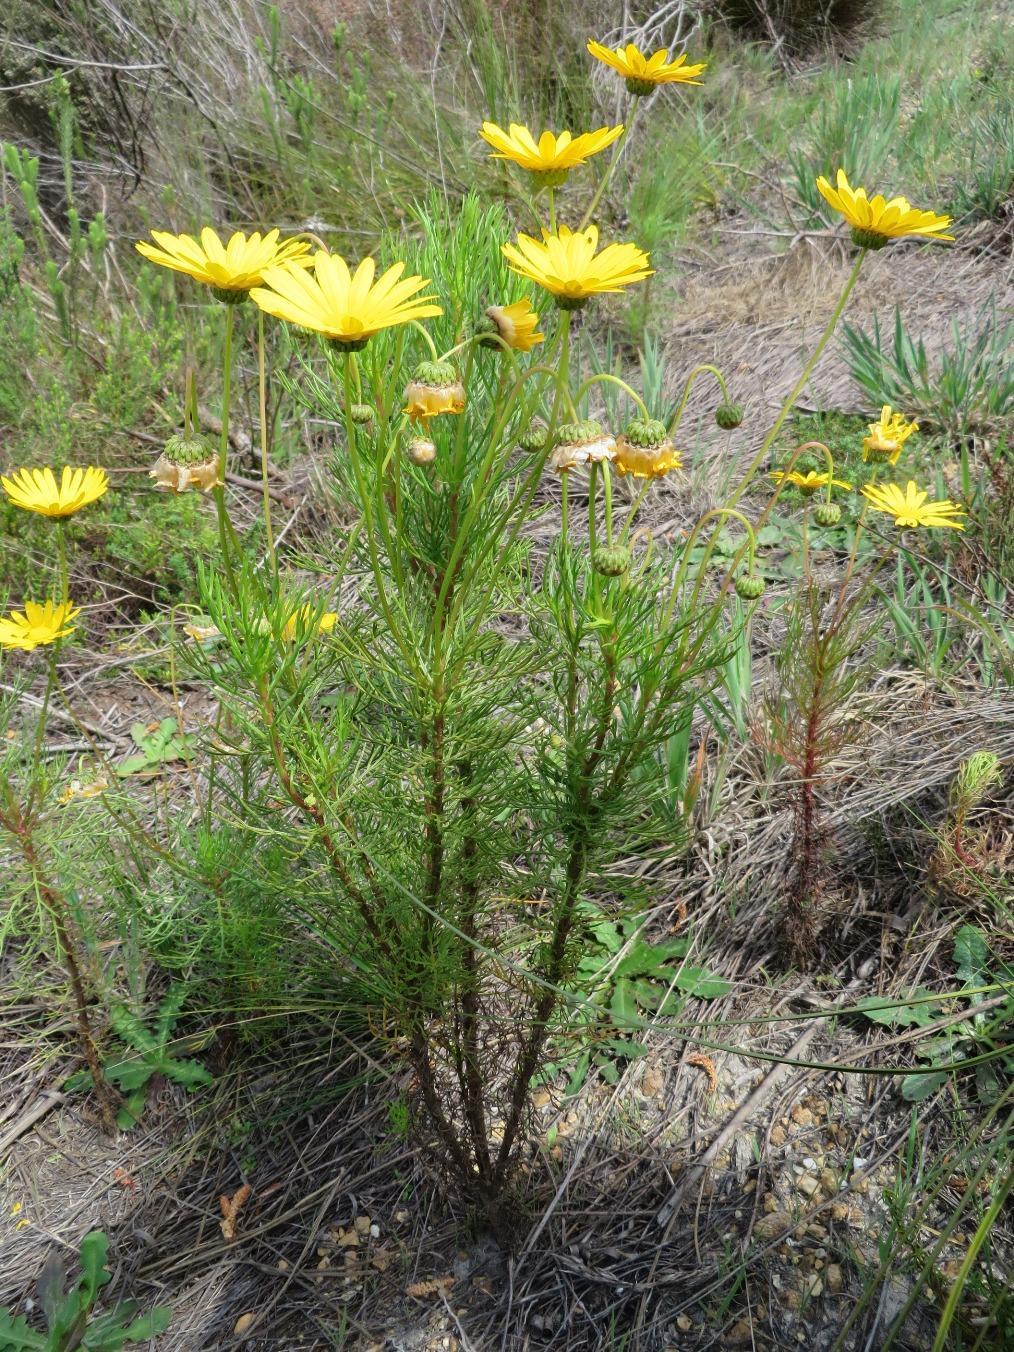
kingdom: Plantae
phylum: Tracheophyta
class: Magnoliopsida
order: Asterales
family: Asteraceae
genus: Ursinia
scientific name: Ursinia paleacea
